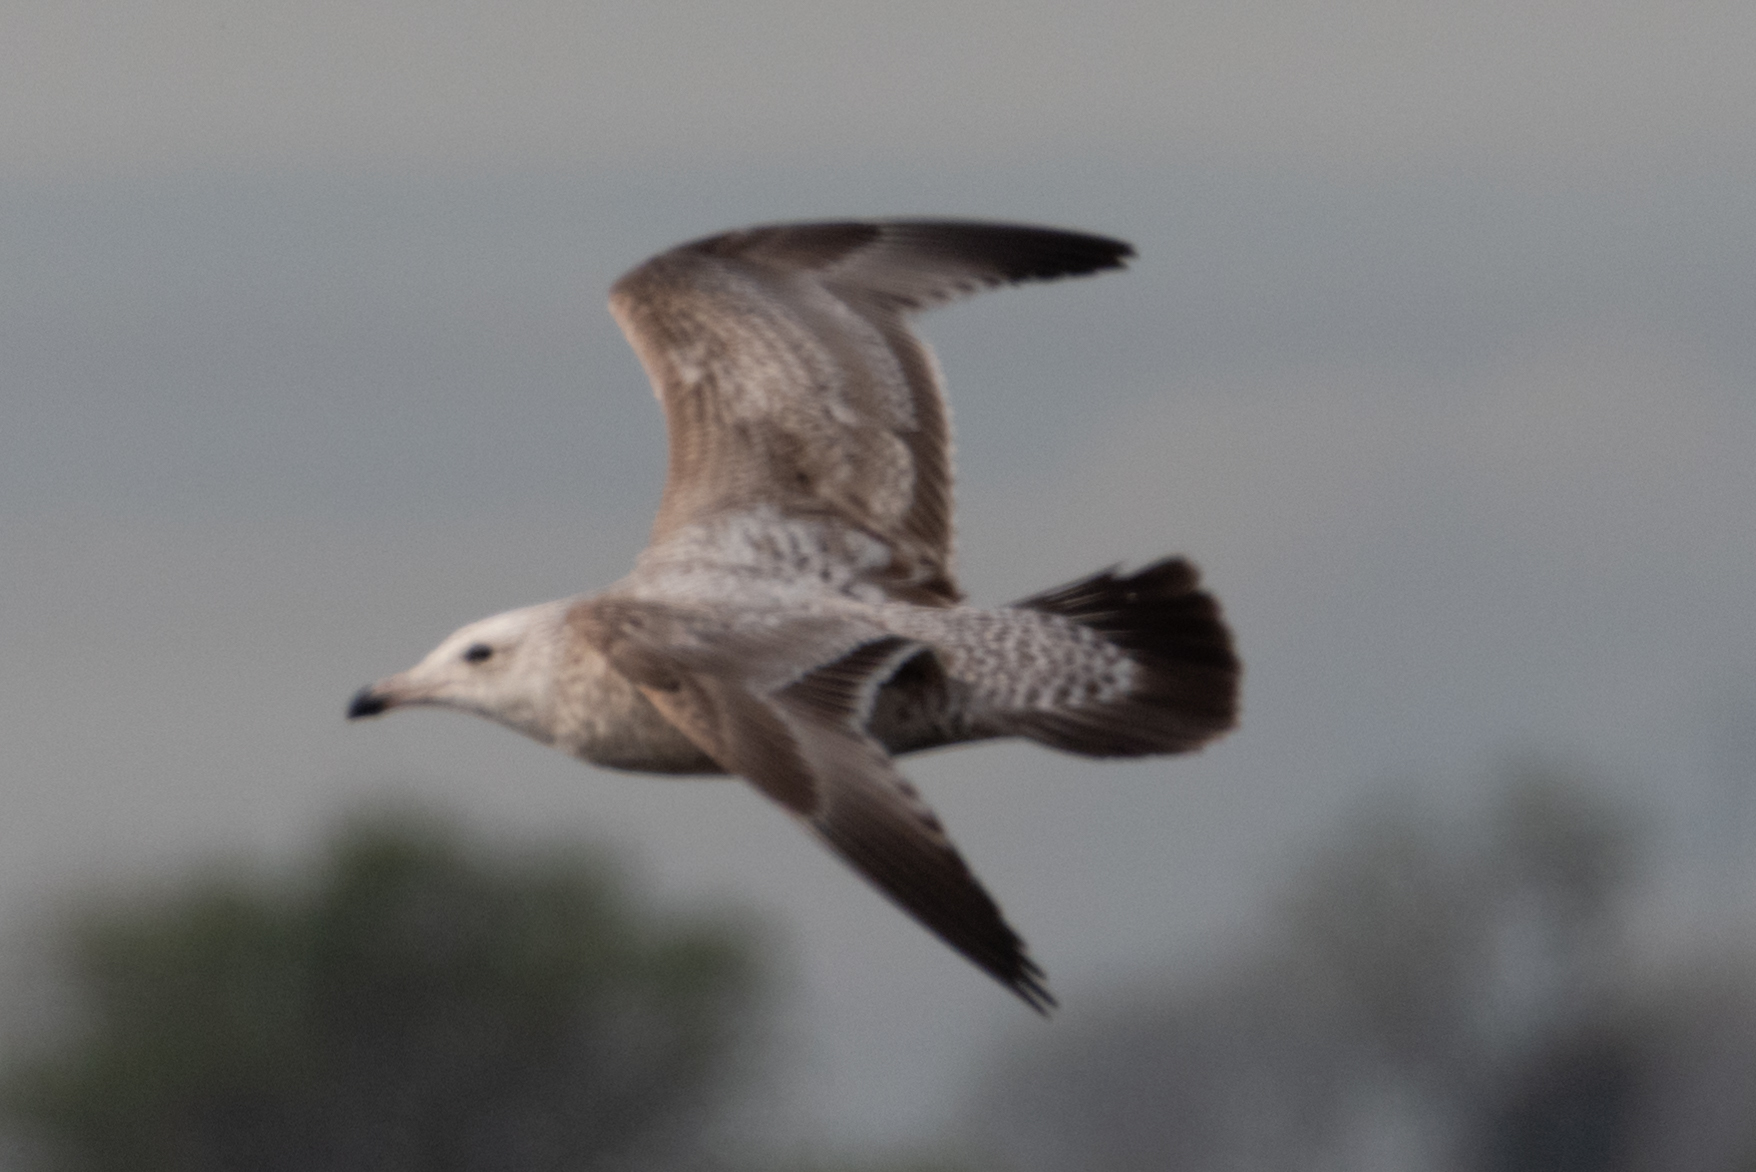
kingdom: Animalia
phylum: Chordata
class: Aves
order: Charadriiformes
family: Laridae
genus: Larus
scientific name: Larus argentatus
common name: Herring gull
